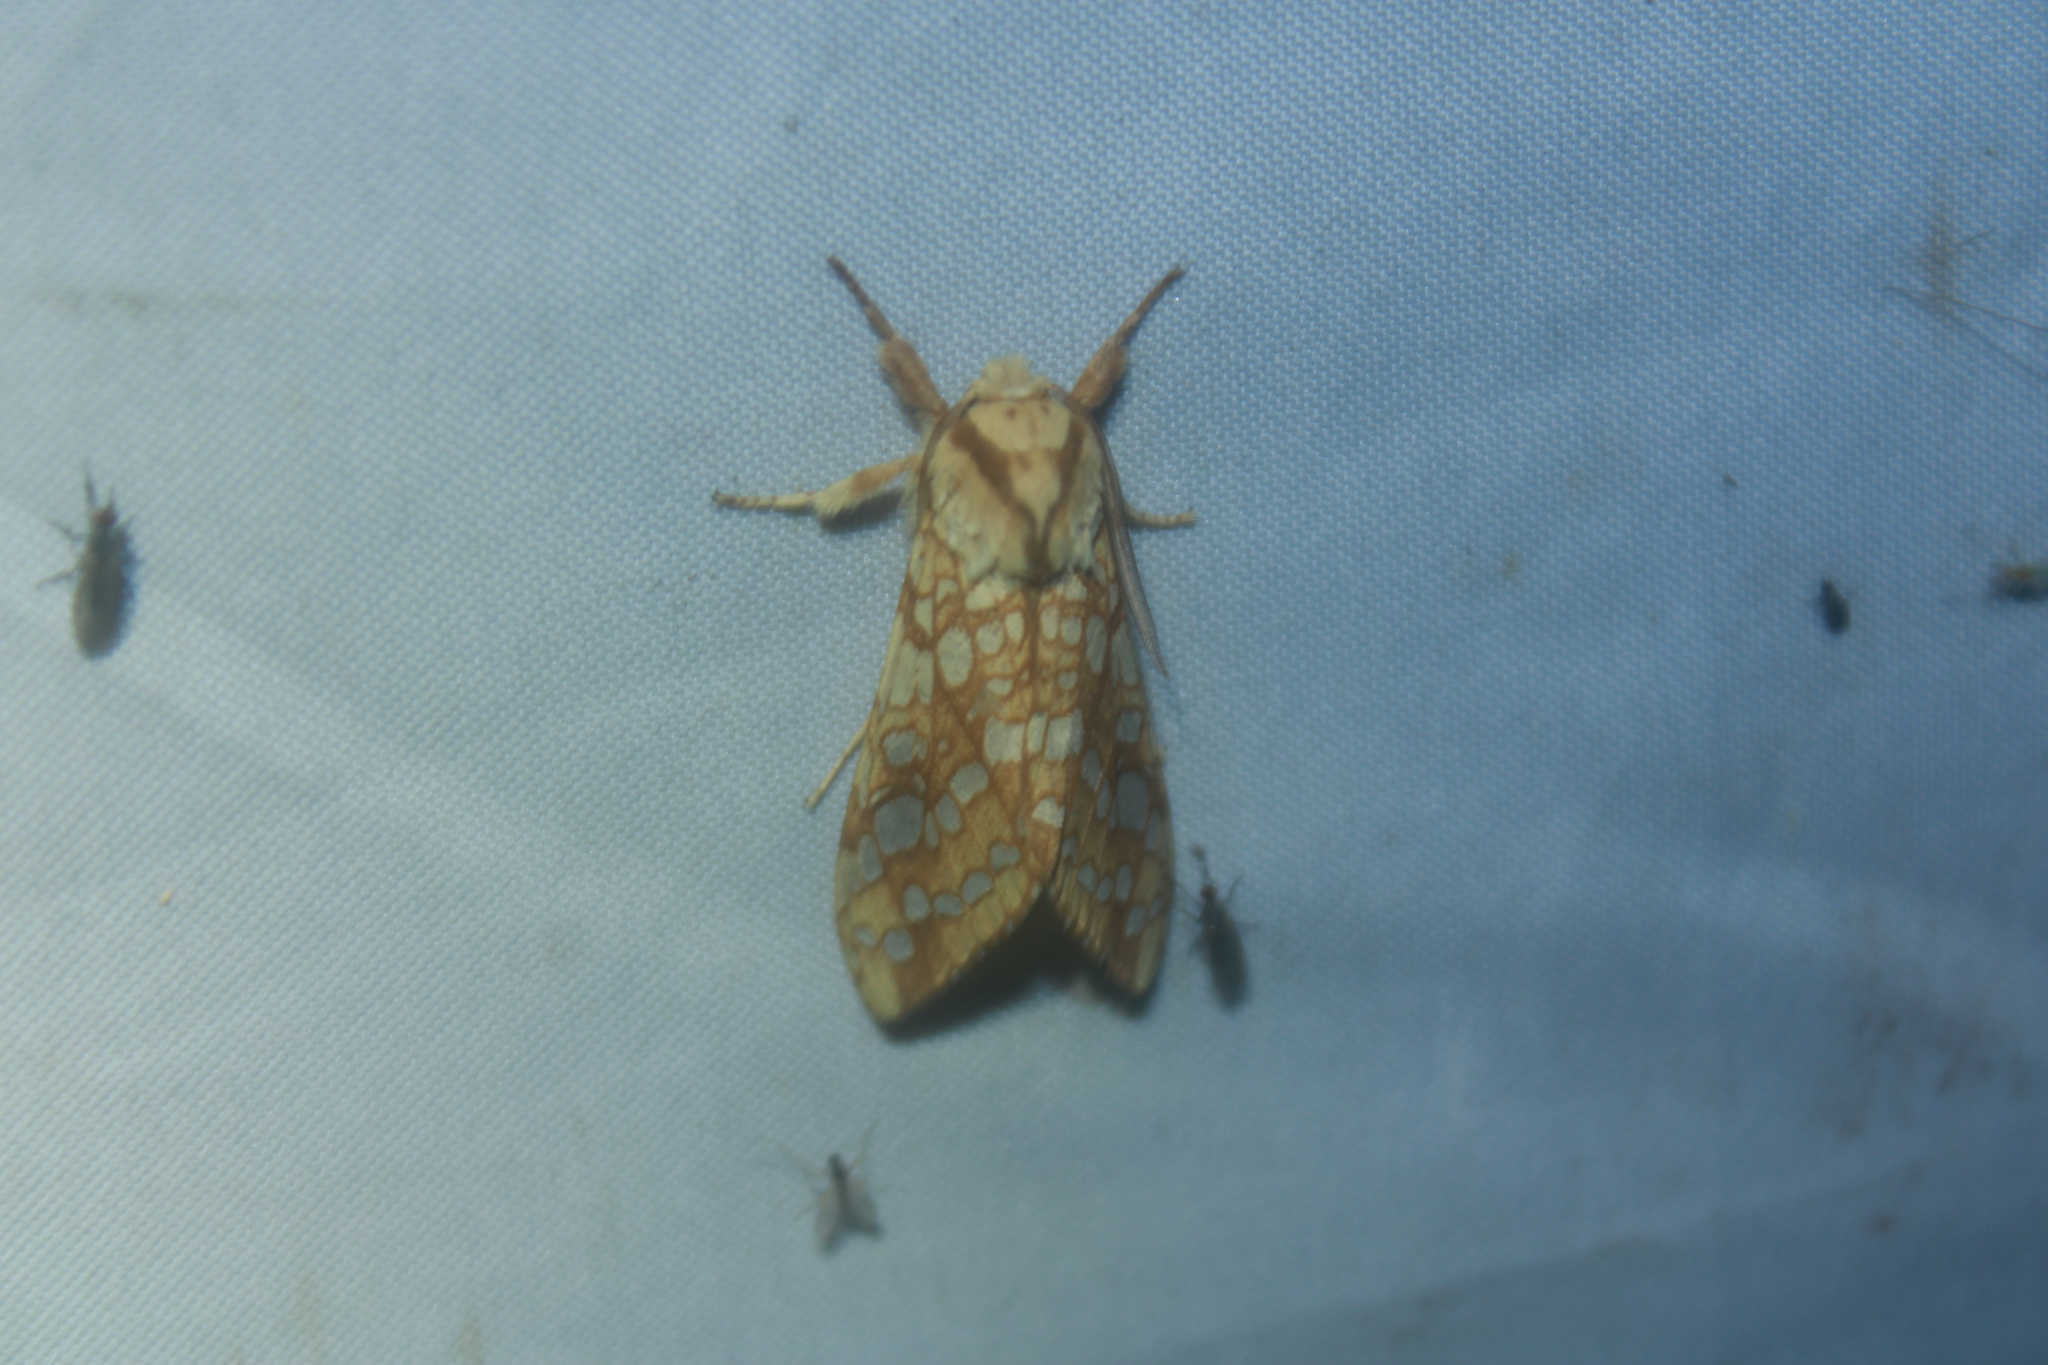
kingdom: Animalia
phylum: Arthropoda
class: Insecta
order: Lepidoptera
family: Erebidae
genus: Lophocampa
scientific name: Lophocampa caryae
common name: Hickory tussock moth
